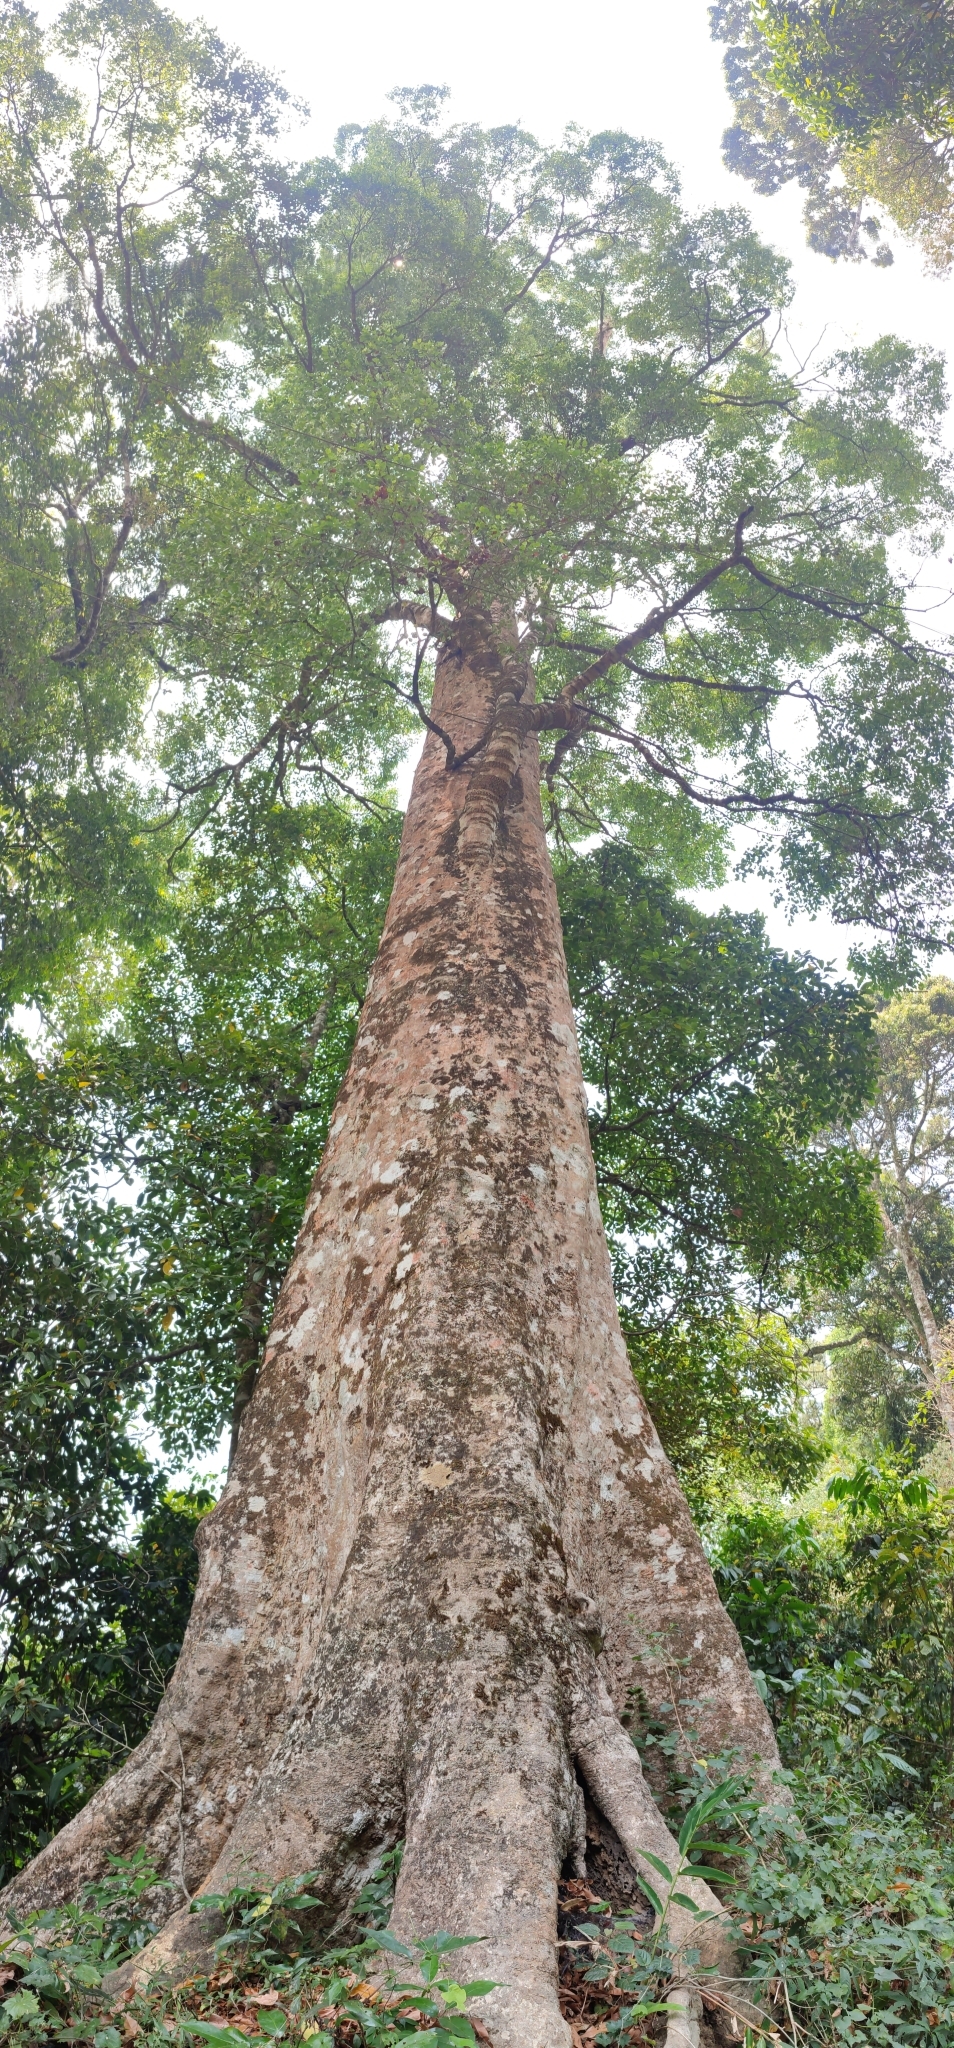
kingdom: Plantae
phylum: Tracheophyta
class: Magnoliopsida
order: Myrtales
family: Myrtaceae
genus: Syzygium
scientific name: Syzygium gardneri
